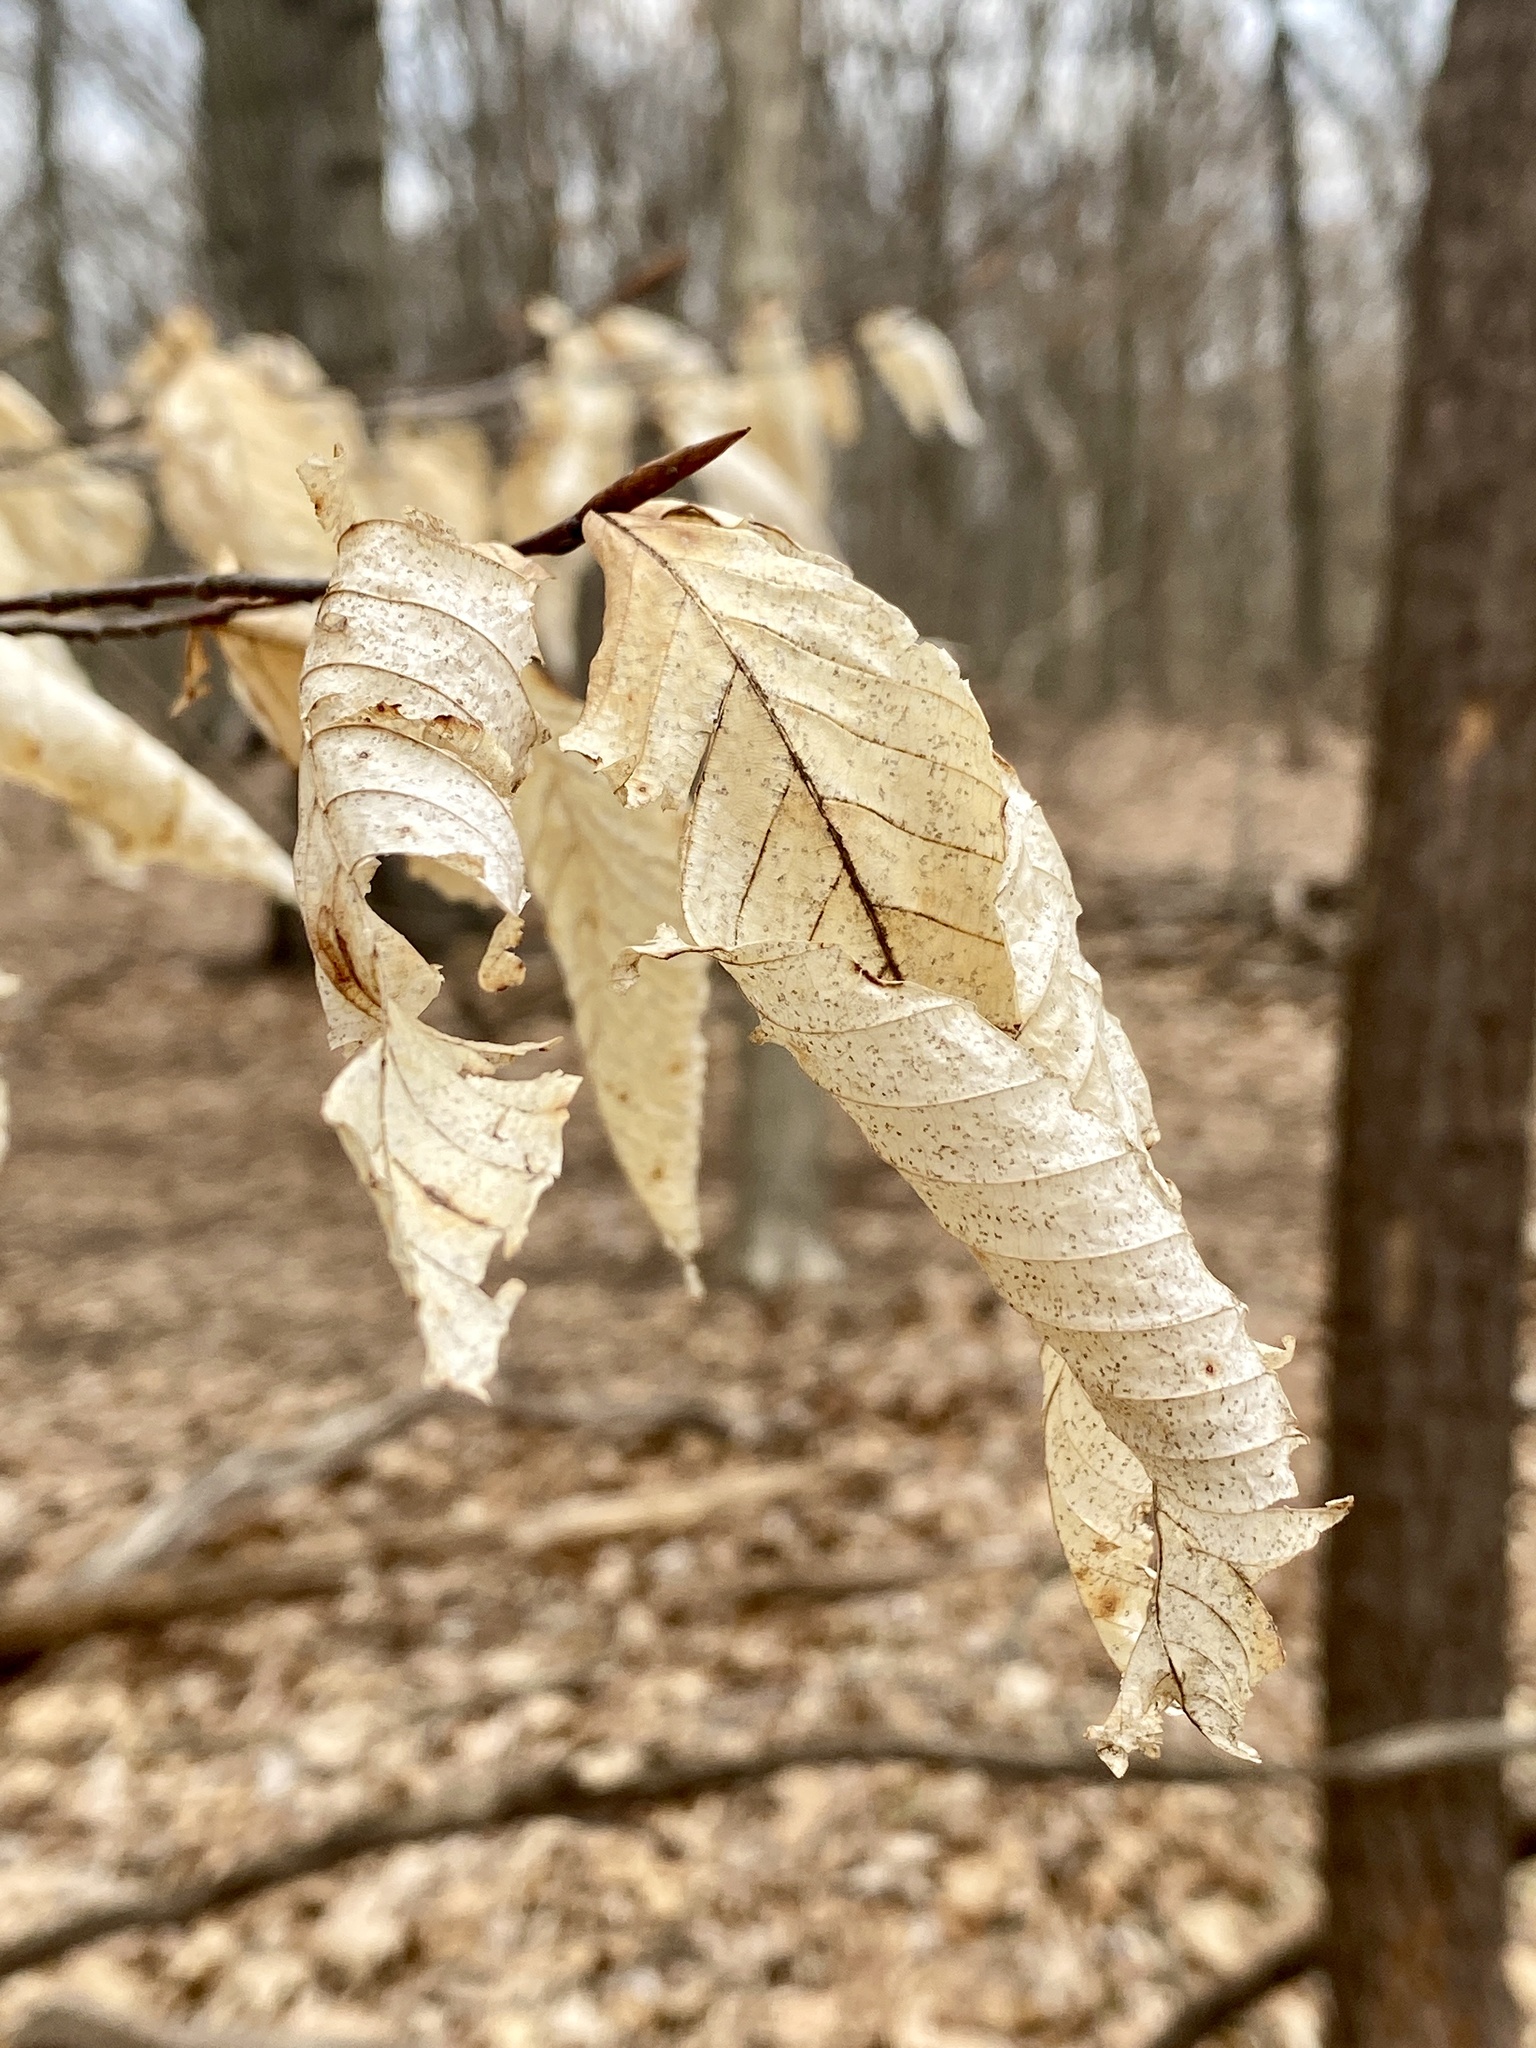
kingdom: Plantae
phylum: Tracheophyta
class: Magnoliopsida
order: Fagales
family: Fagaceae
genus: Fagus
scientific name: Fagus grandifolia
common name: American beech
